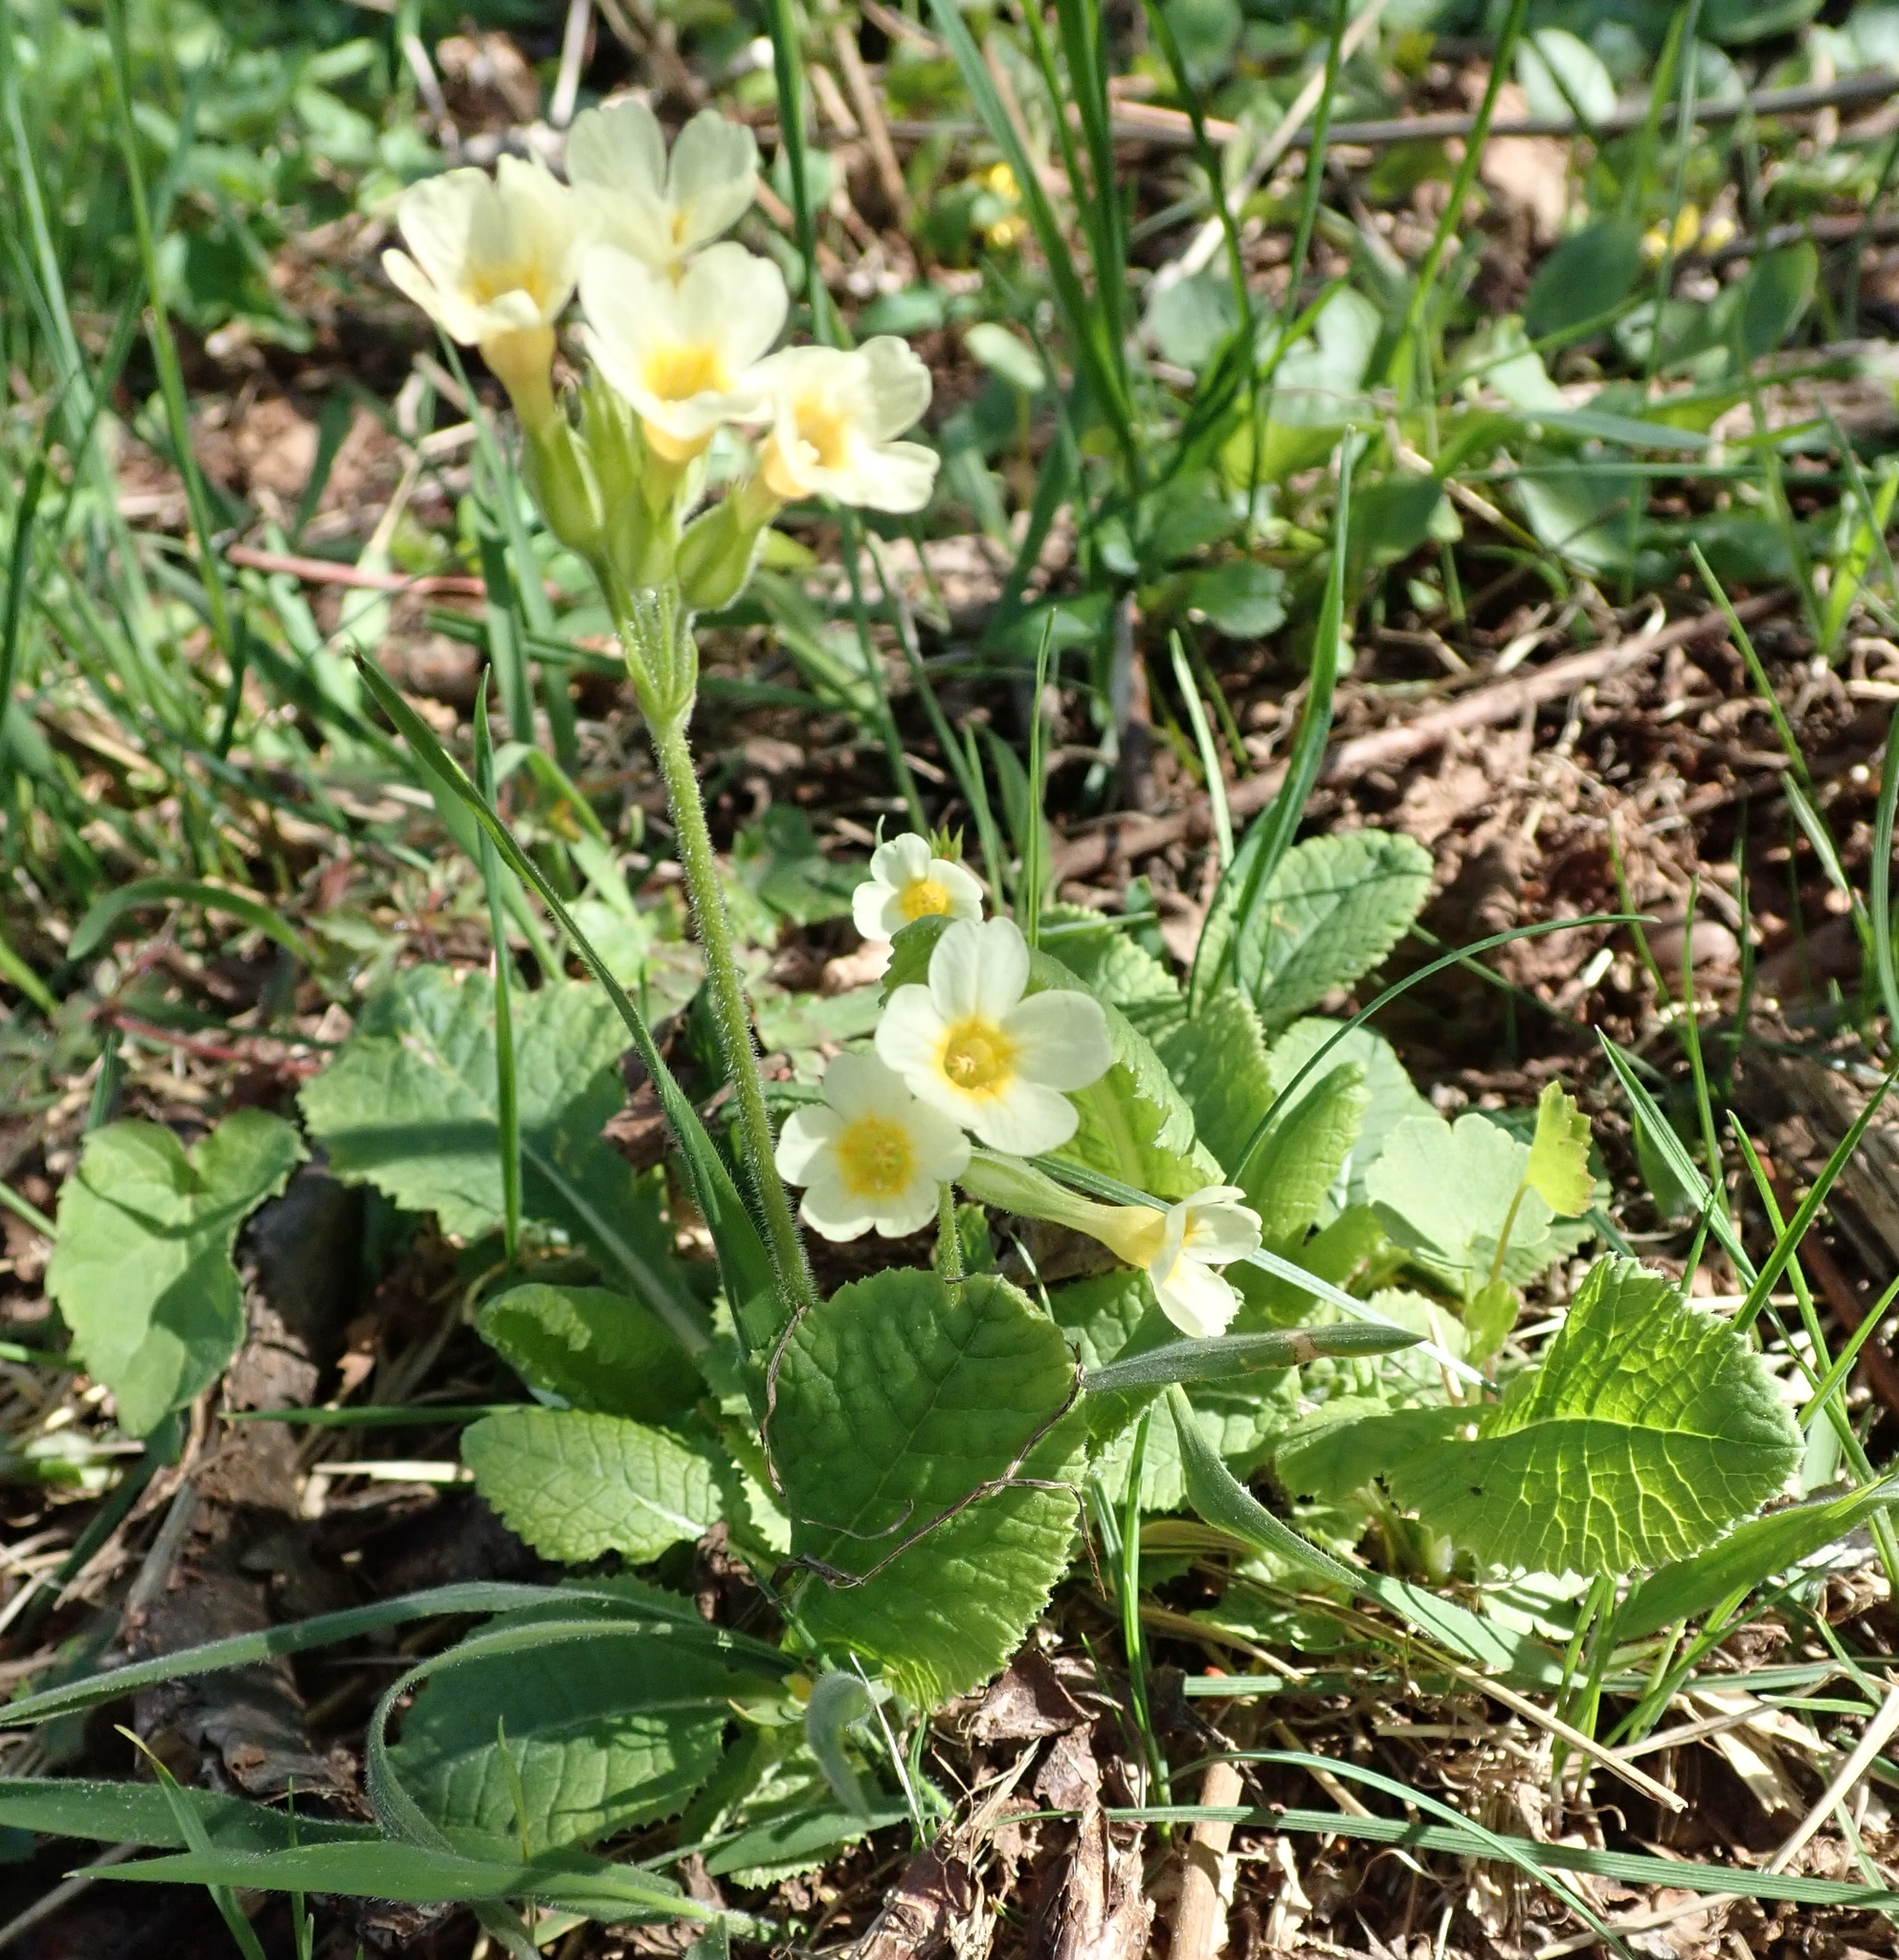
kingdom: Plantae
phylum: Tracheophyta
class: Magnoliopsida
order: Ericales
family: Primulaceae
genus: Primula
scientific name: Primula elatior
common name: Oxlip
